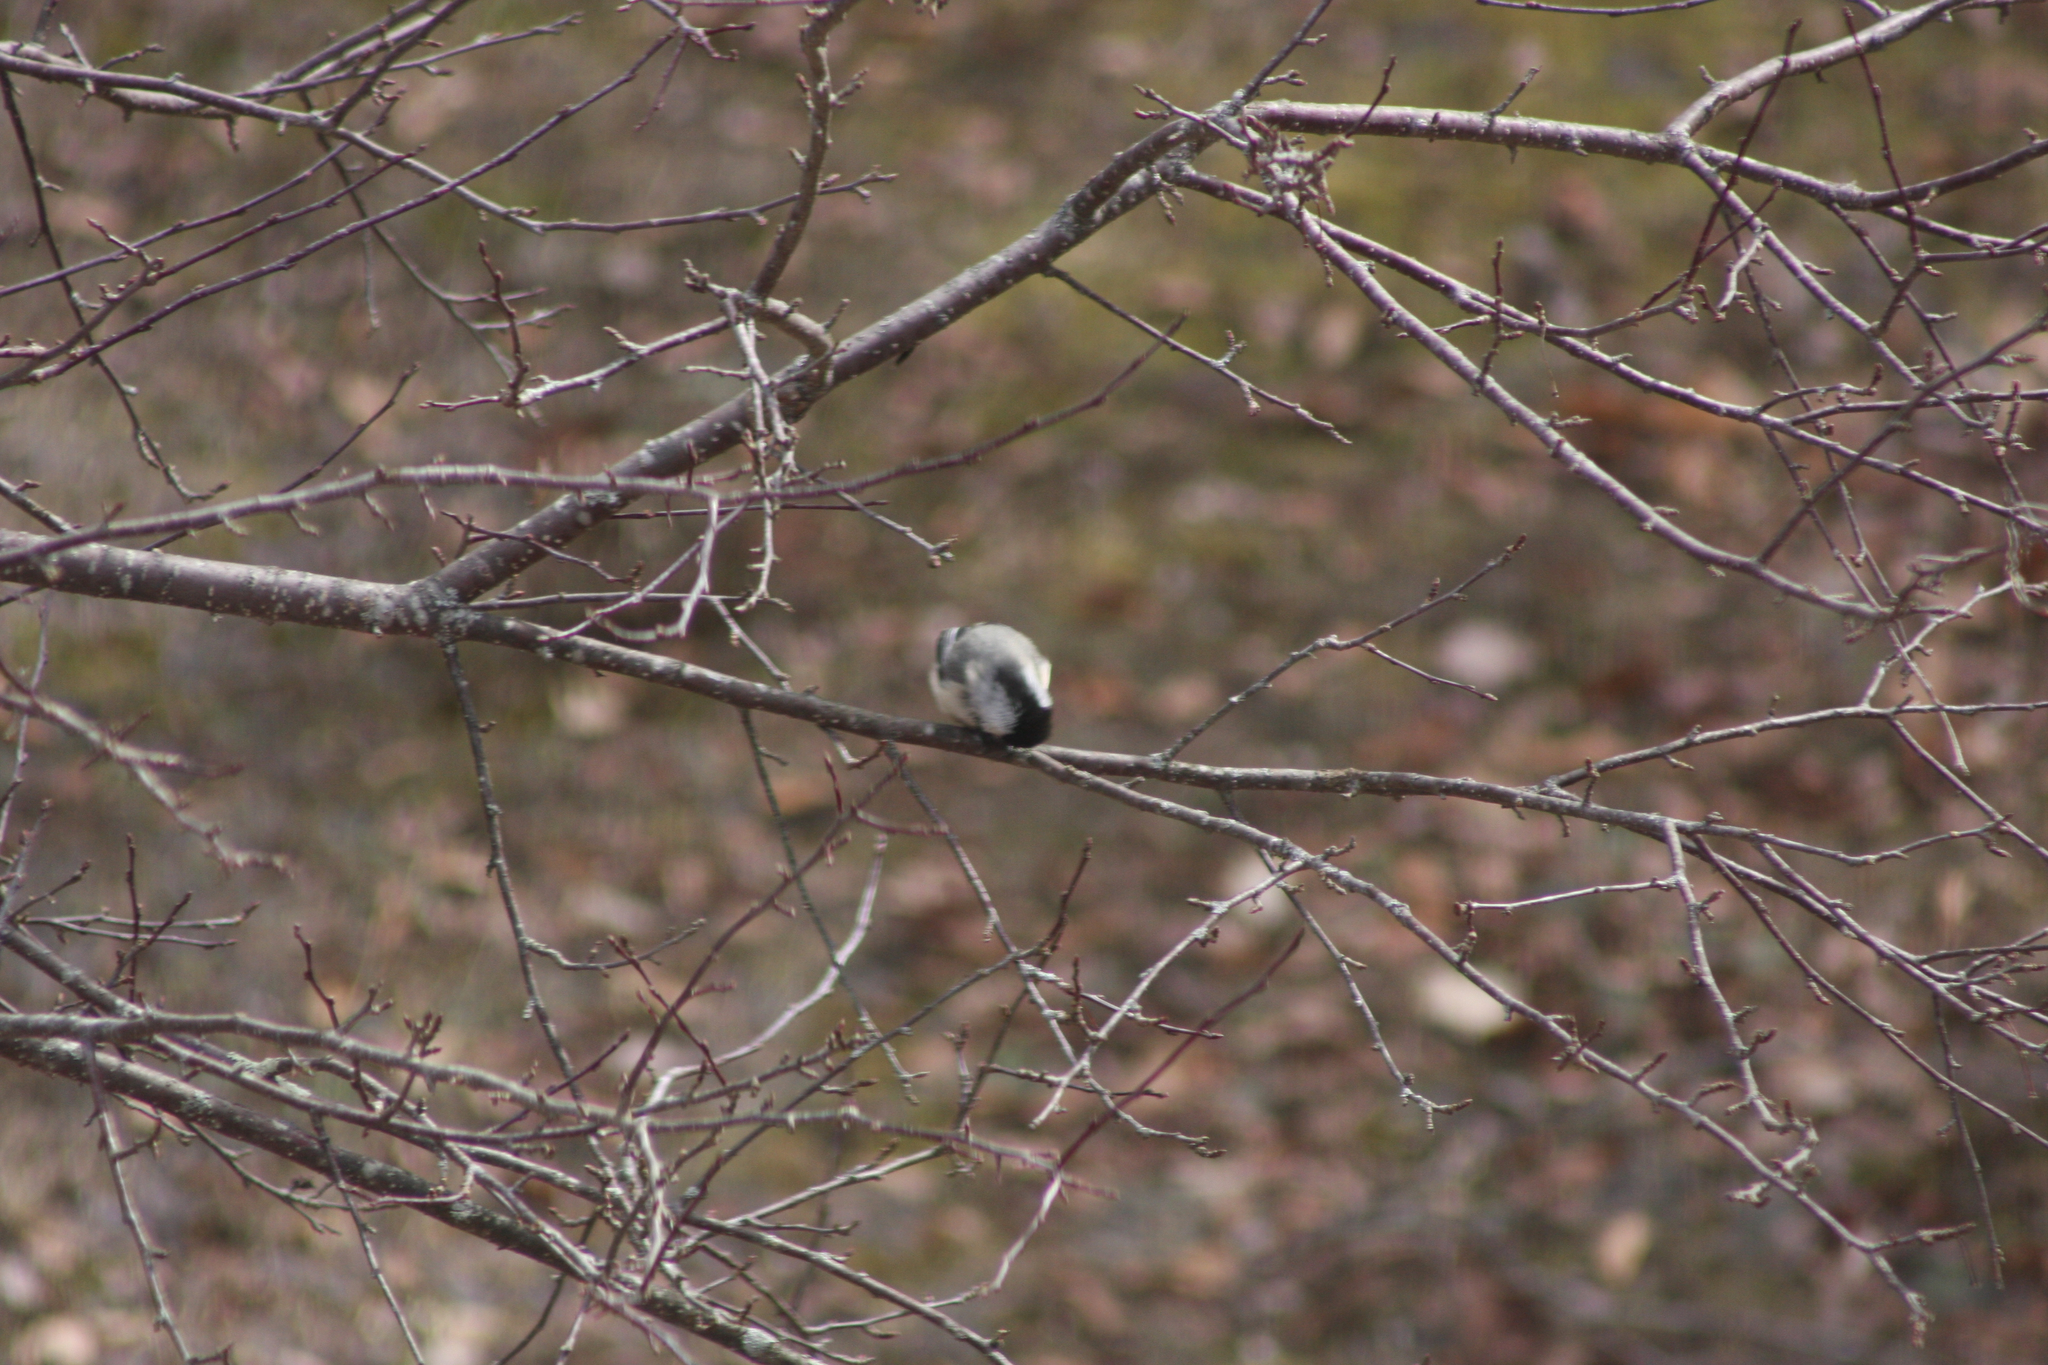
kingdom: Animalia
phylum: Chordata
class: Aves
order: Passeriformes
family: Paridae
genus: Poecile
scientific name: Poecile atricapillus
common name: Black-capped chickadee
